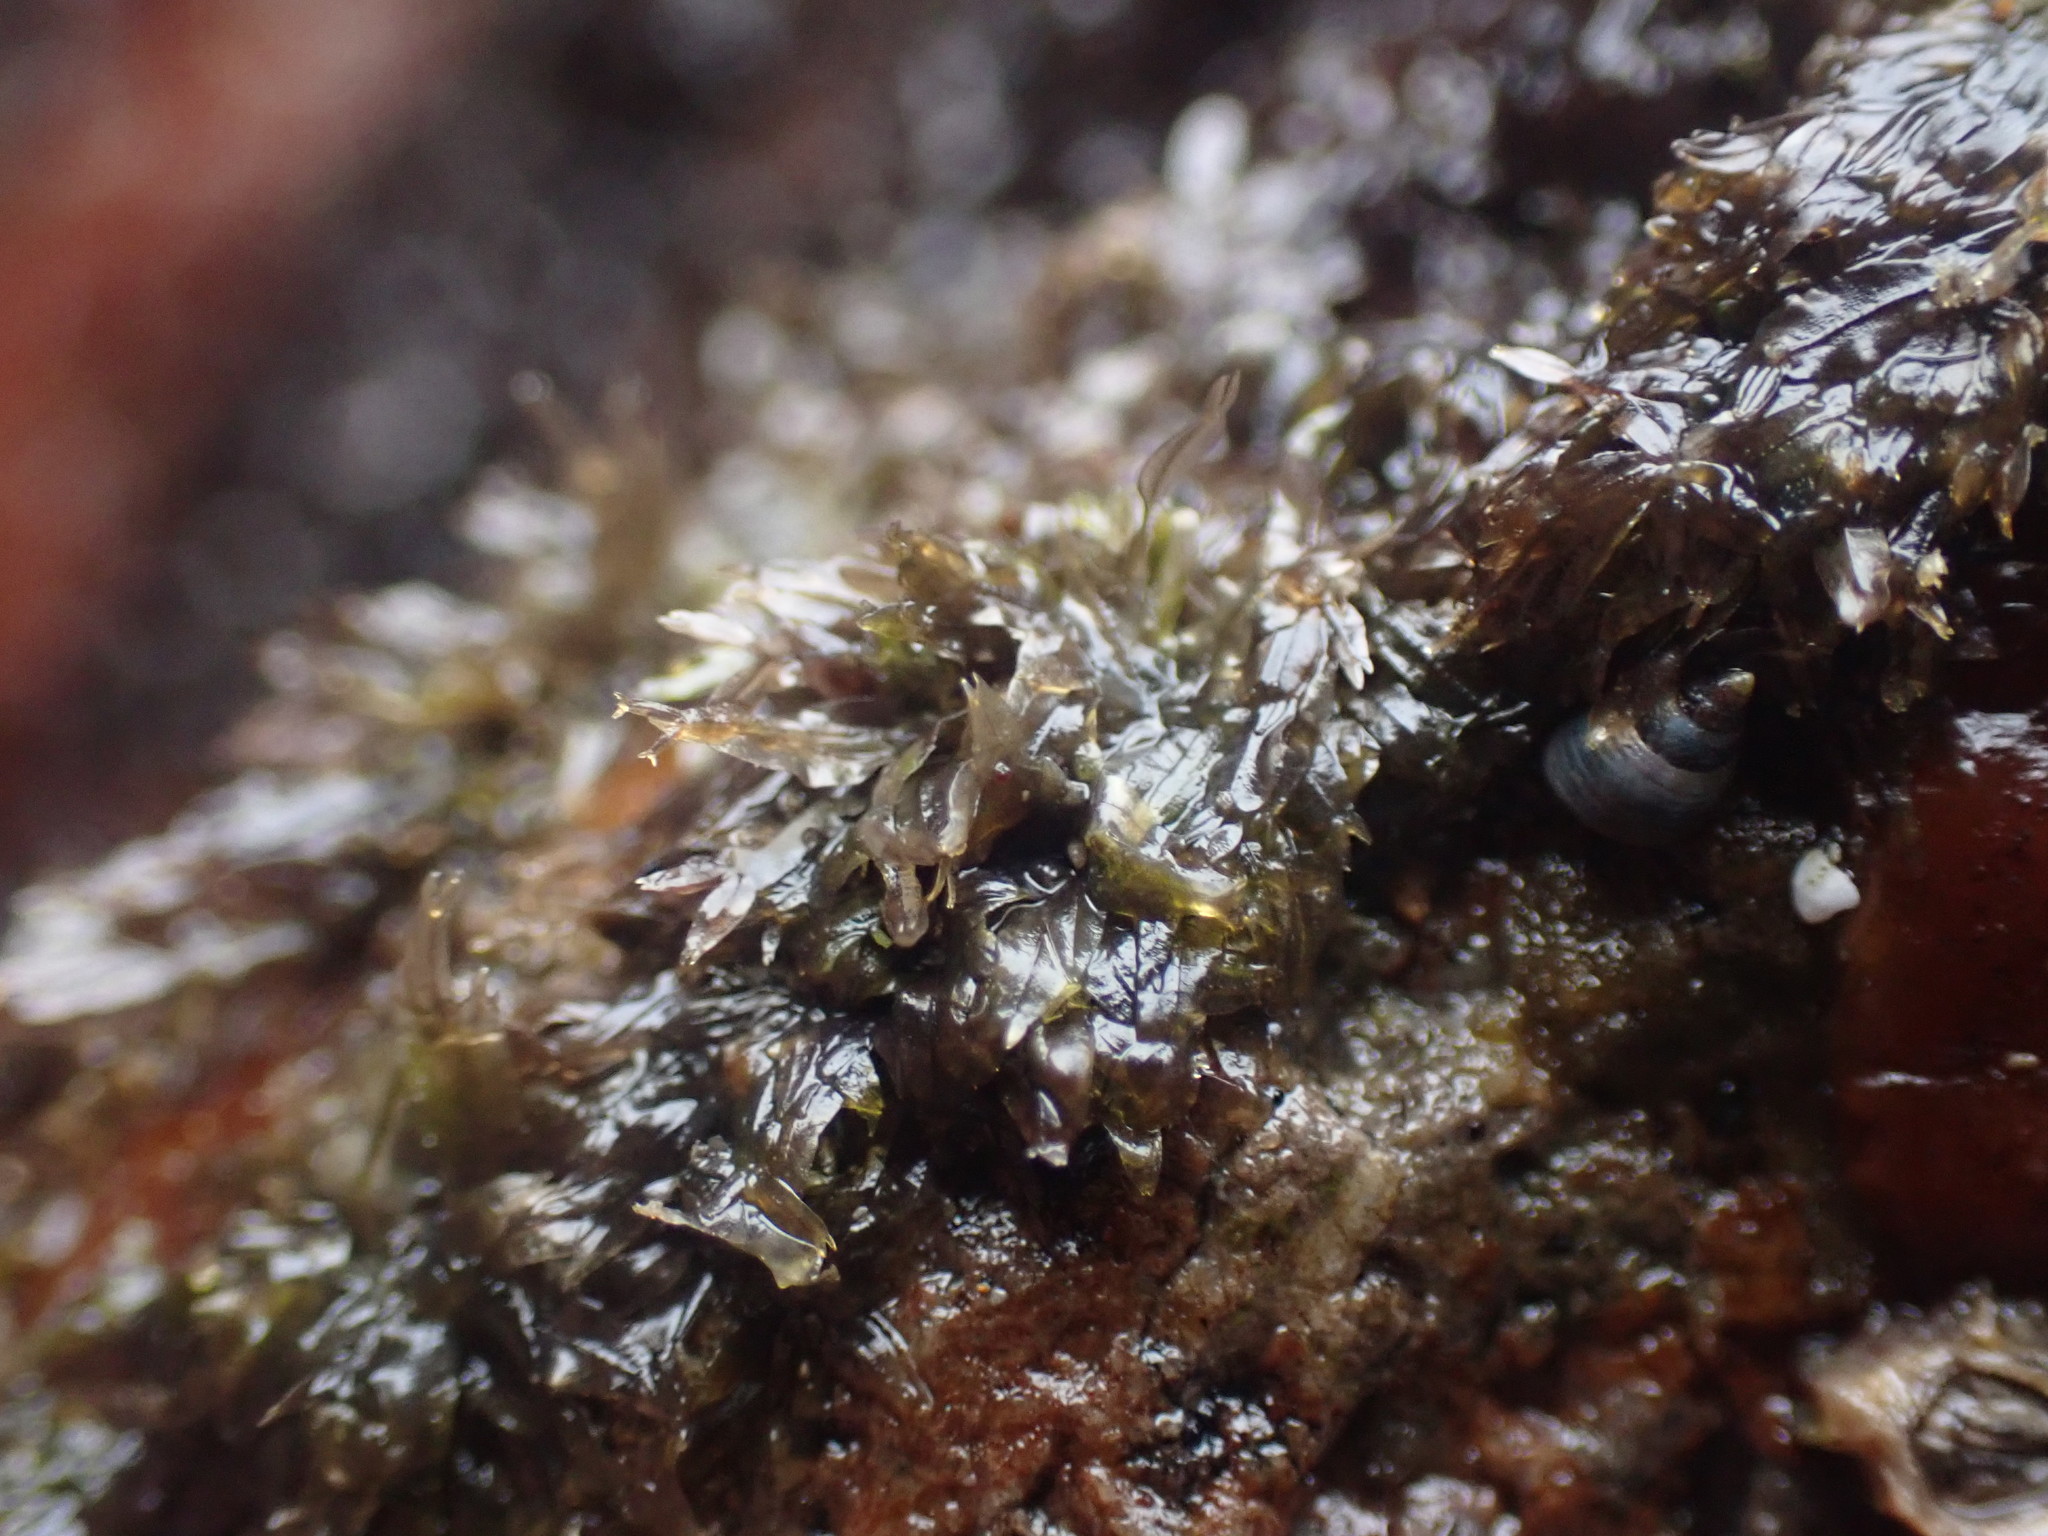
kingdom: Plantae
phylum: Rhodophyta
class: Florideophyceae
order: Ceramiales
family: Delesseriaceae
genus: Caloglossa
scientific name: Caloglossa vieillardii
